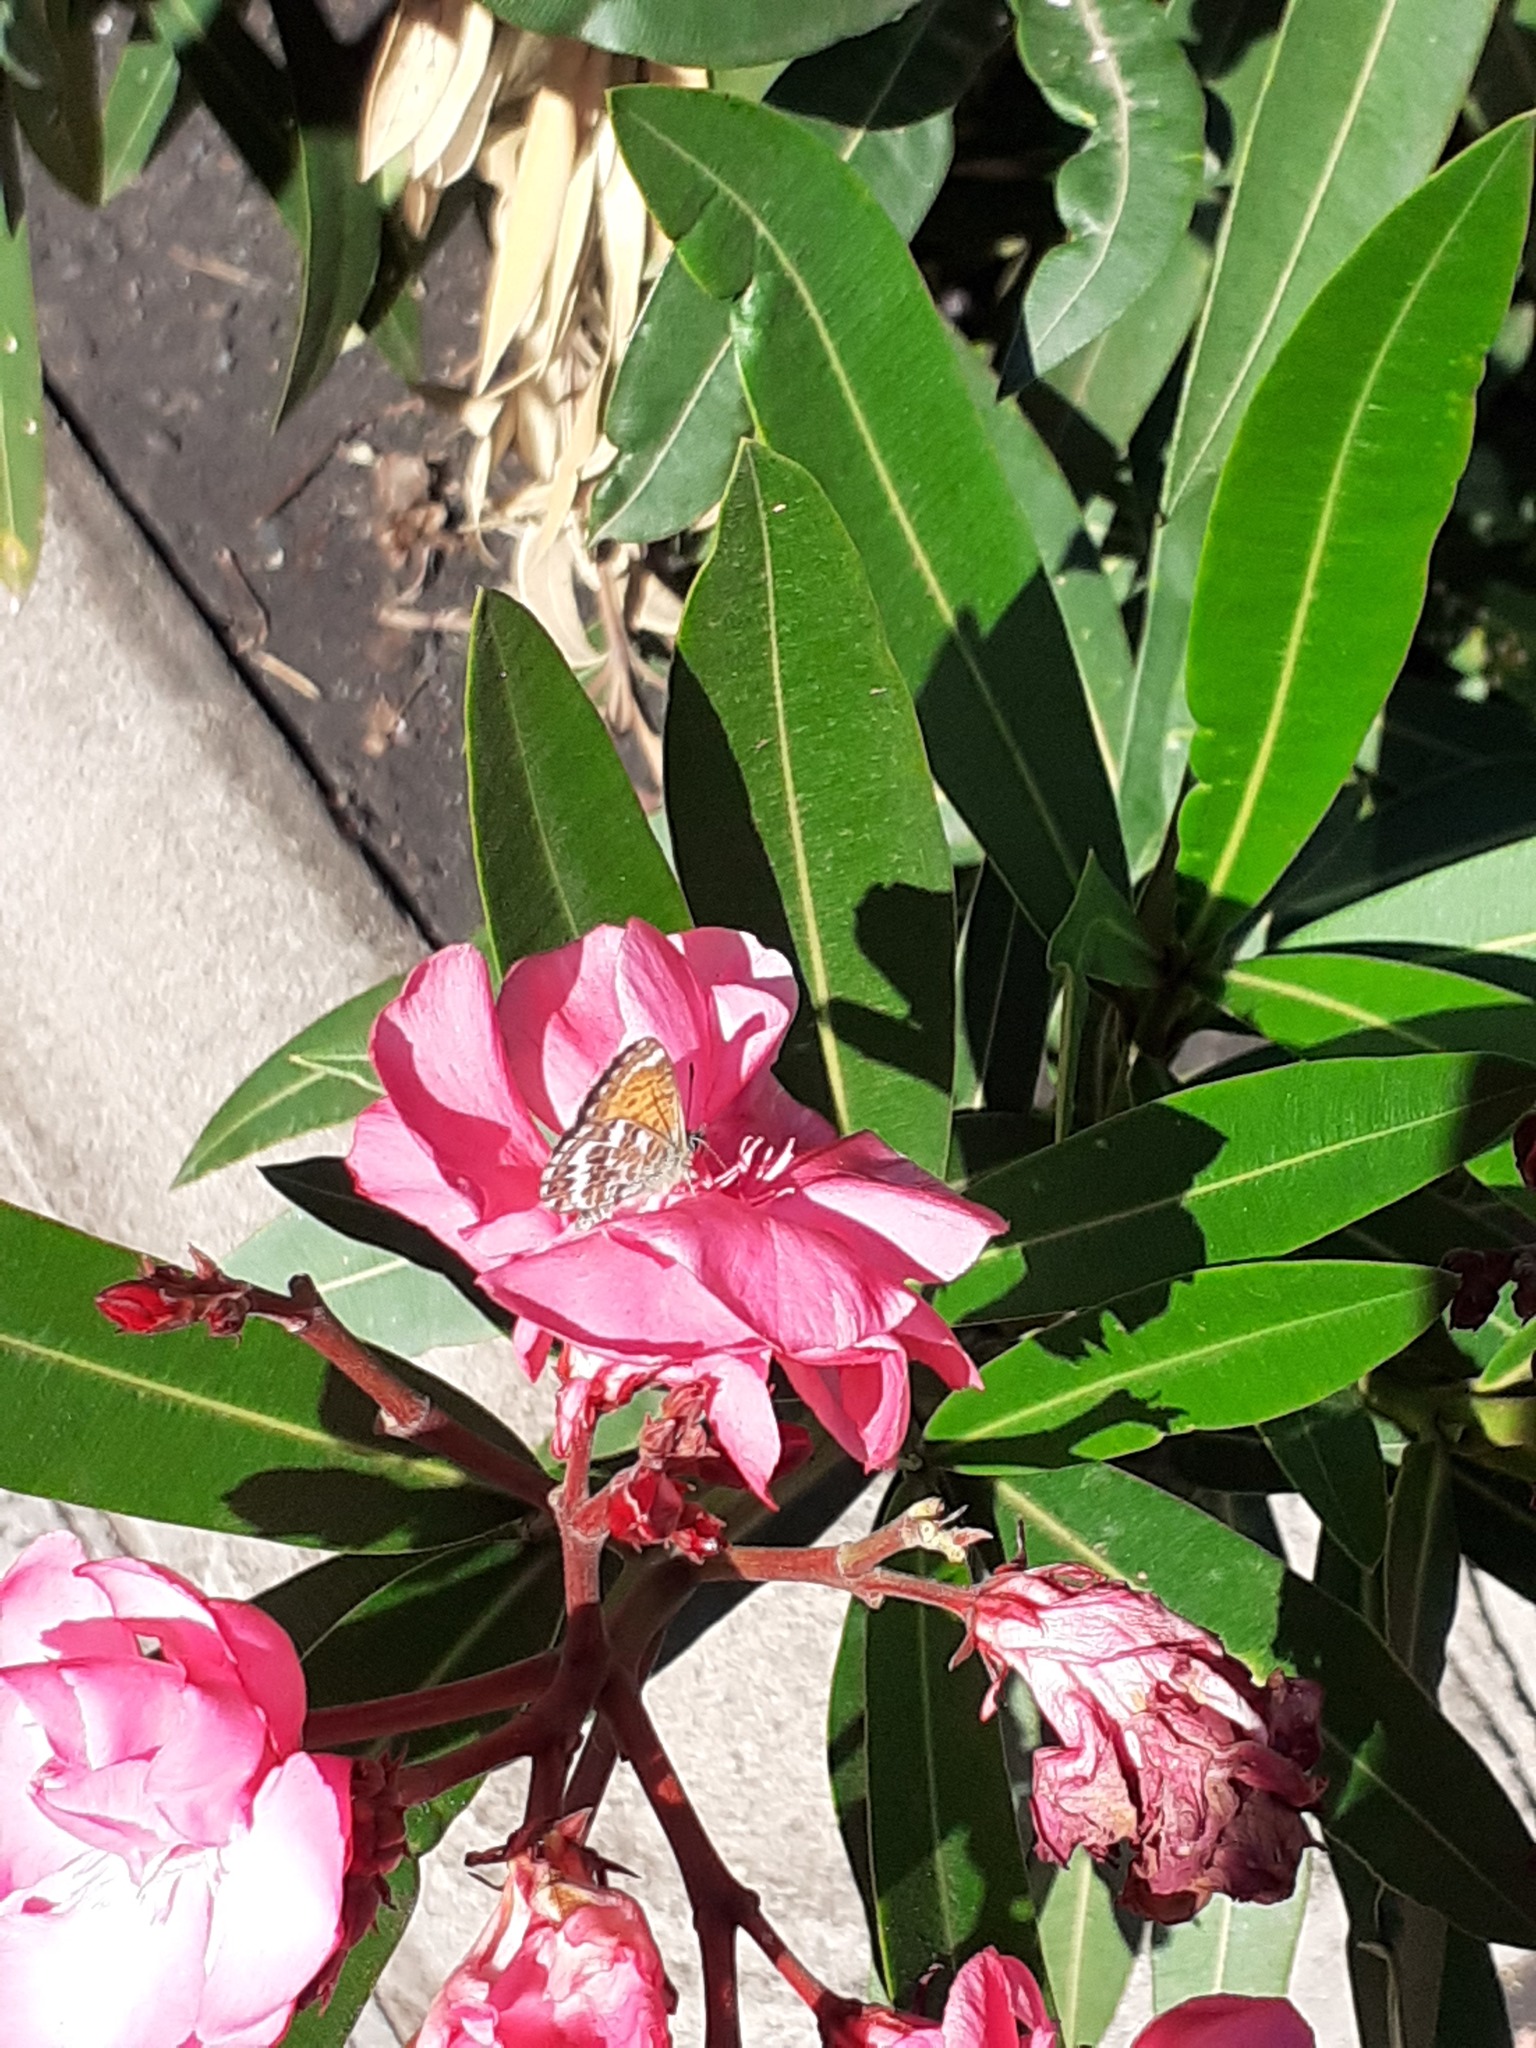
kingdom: Animalia
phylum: Arthropoda
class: Insecta
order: Lepidoptera
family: Lycaenidae
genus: Cyclyrius
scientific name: Cyclyrius webbianus
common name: Canary blue
